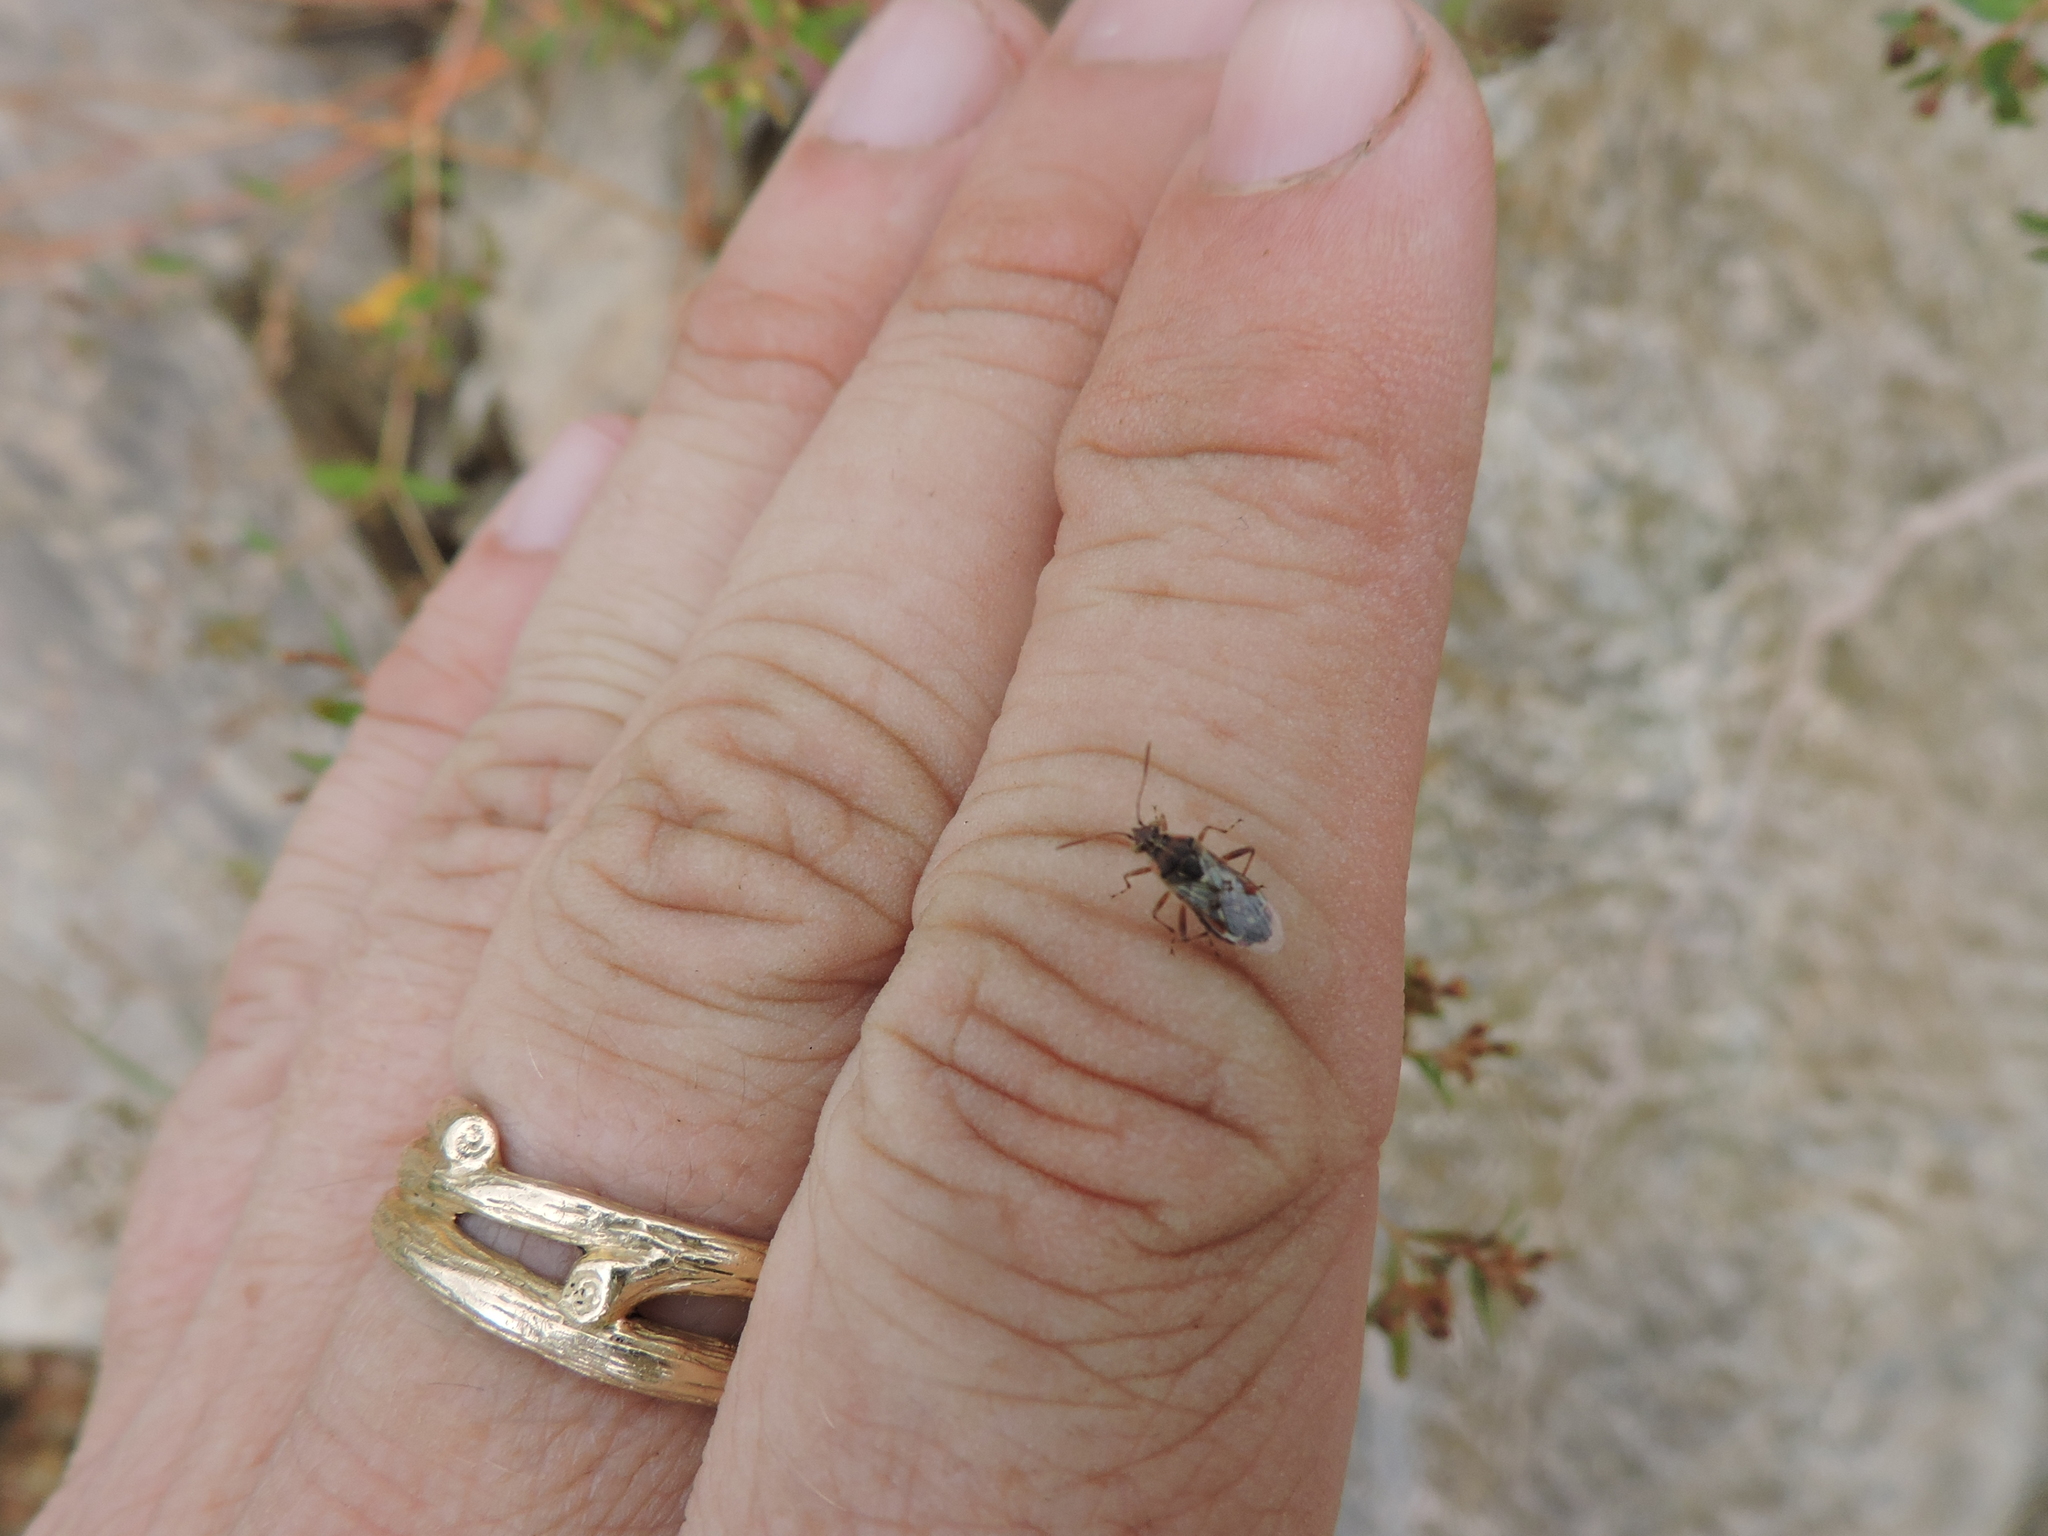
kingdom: Animalia
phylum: Arthropoda
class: Insecta
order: Hemiptera
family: Rhopalidae
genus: Liorhyssus
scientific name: Liorhyssus hyalinus
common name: Scentless plant bug
